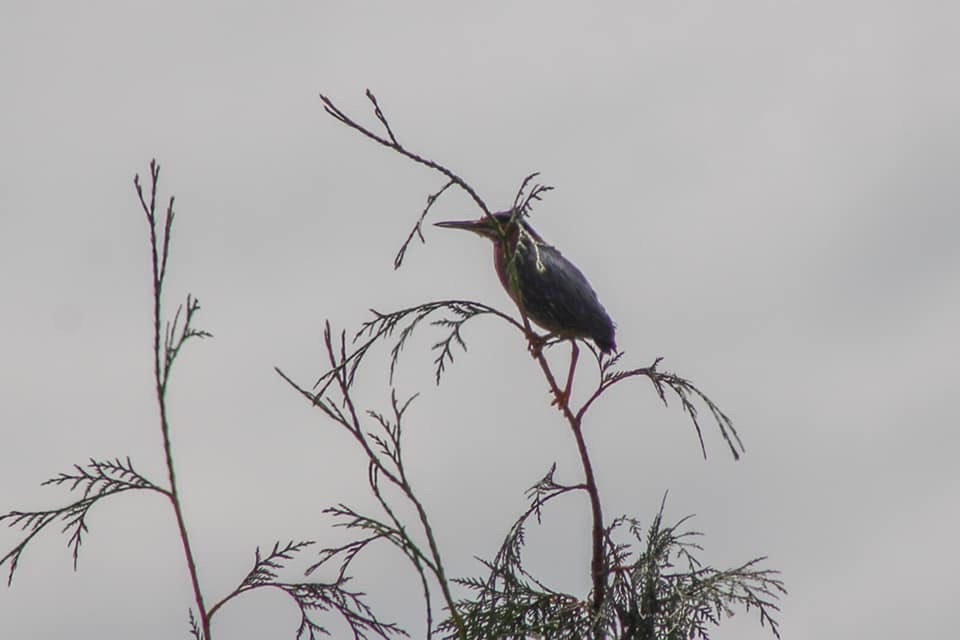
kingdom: Animalia
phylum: Chordata
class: Aves
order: Pelecaniformes
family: Ardeidae
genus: Butorides
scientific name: Butorides virescens
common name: Green heron
